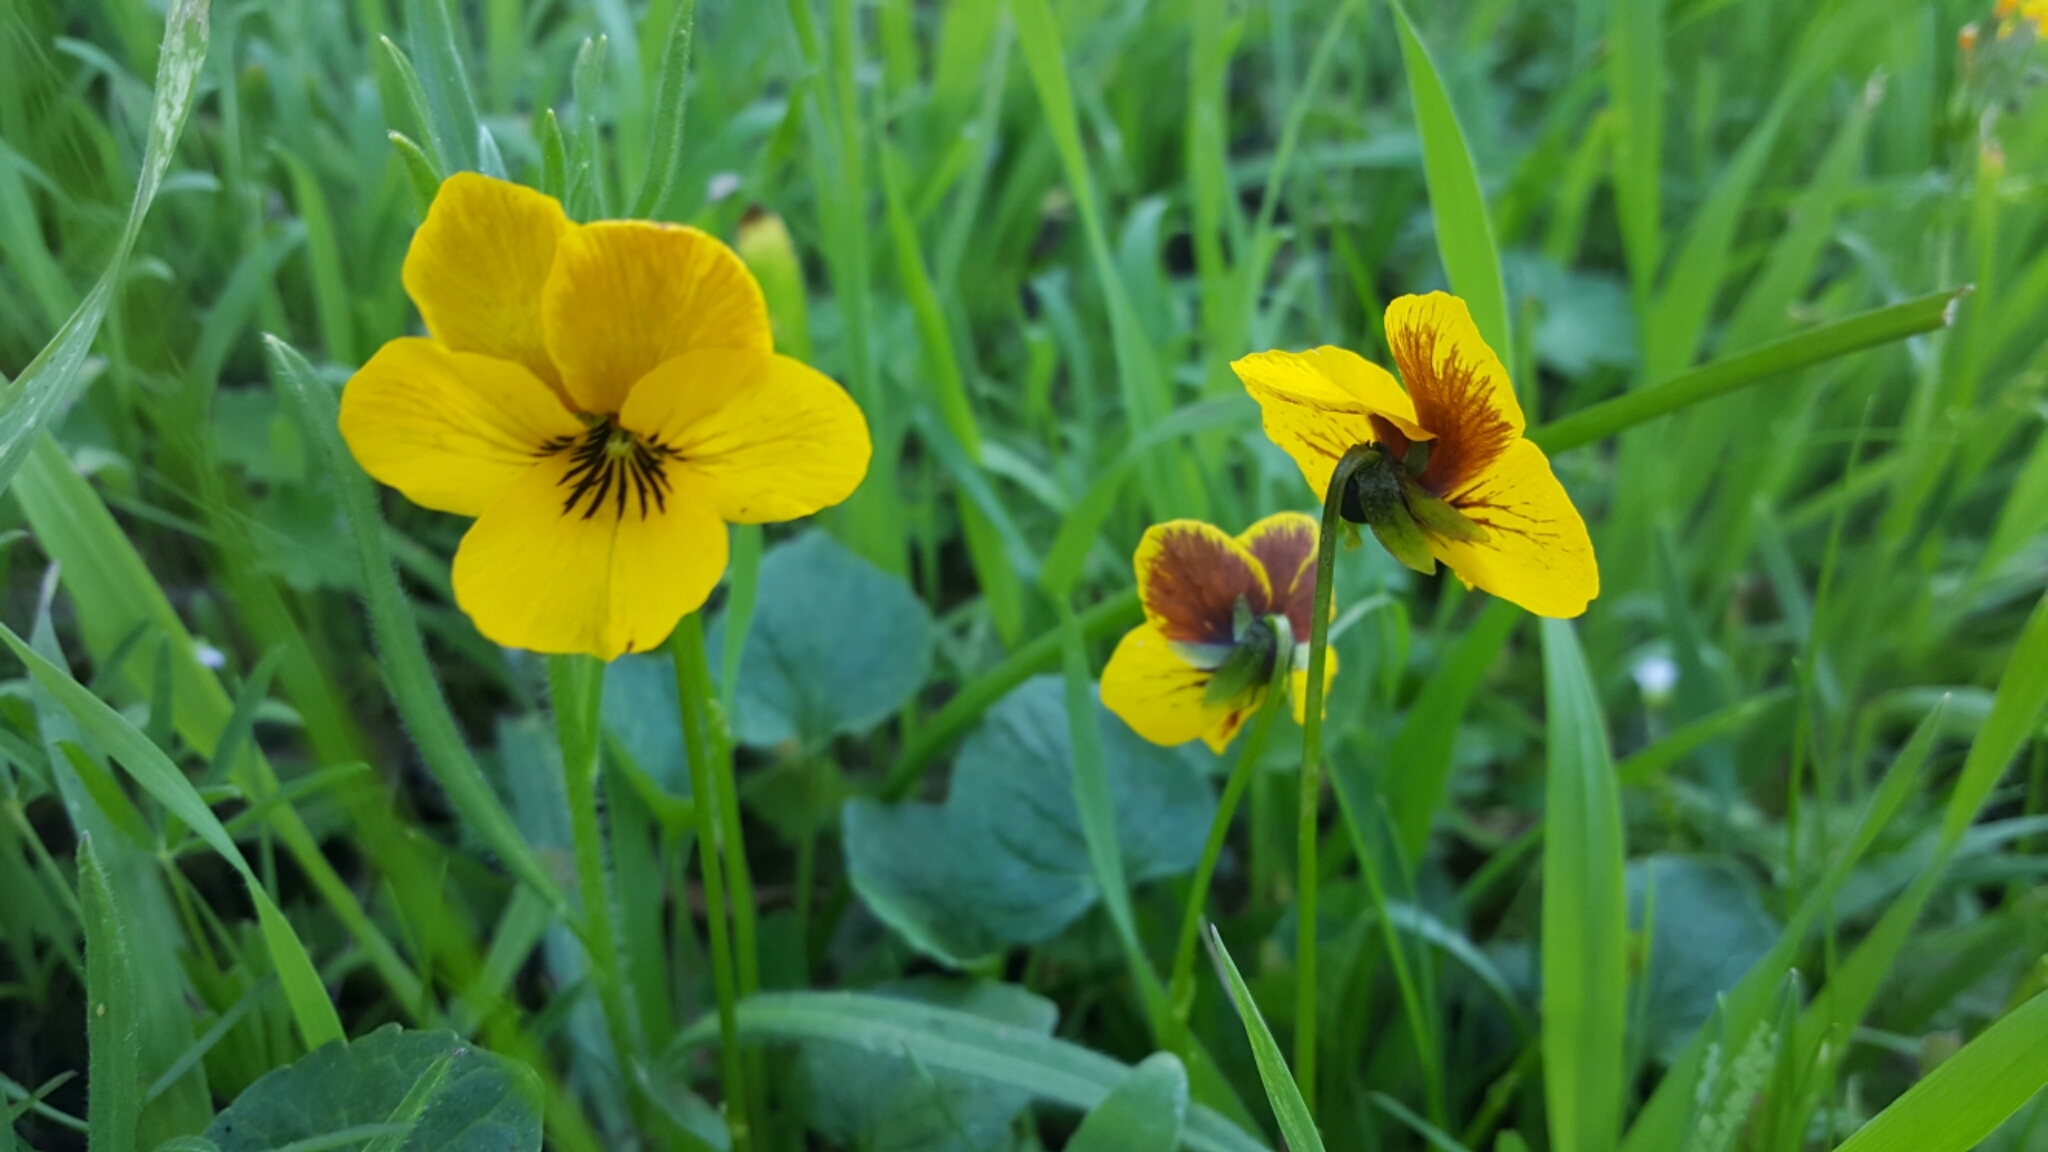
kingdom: Plantae
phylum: Tracheophyta
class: Magnoliopsida
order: Malpighiales
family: Violaceae
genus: Viola
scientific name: Viola pedunculata
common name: California golden violet
